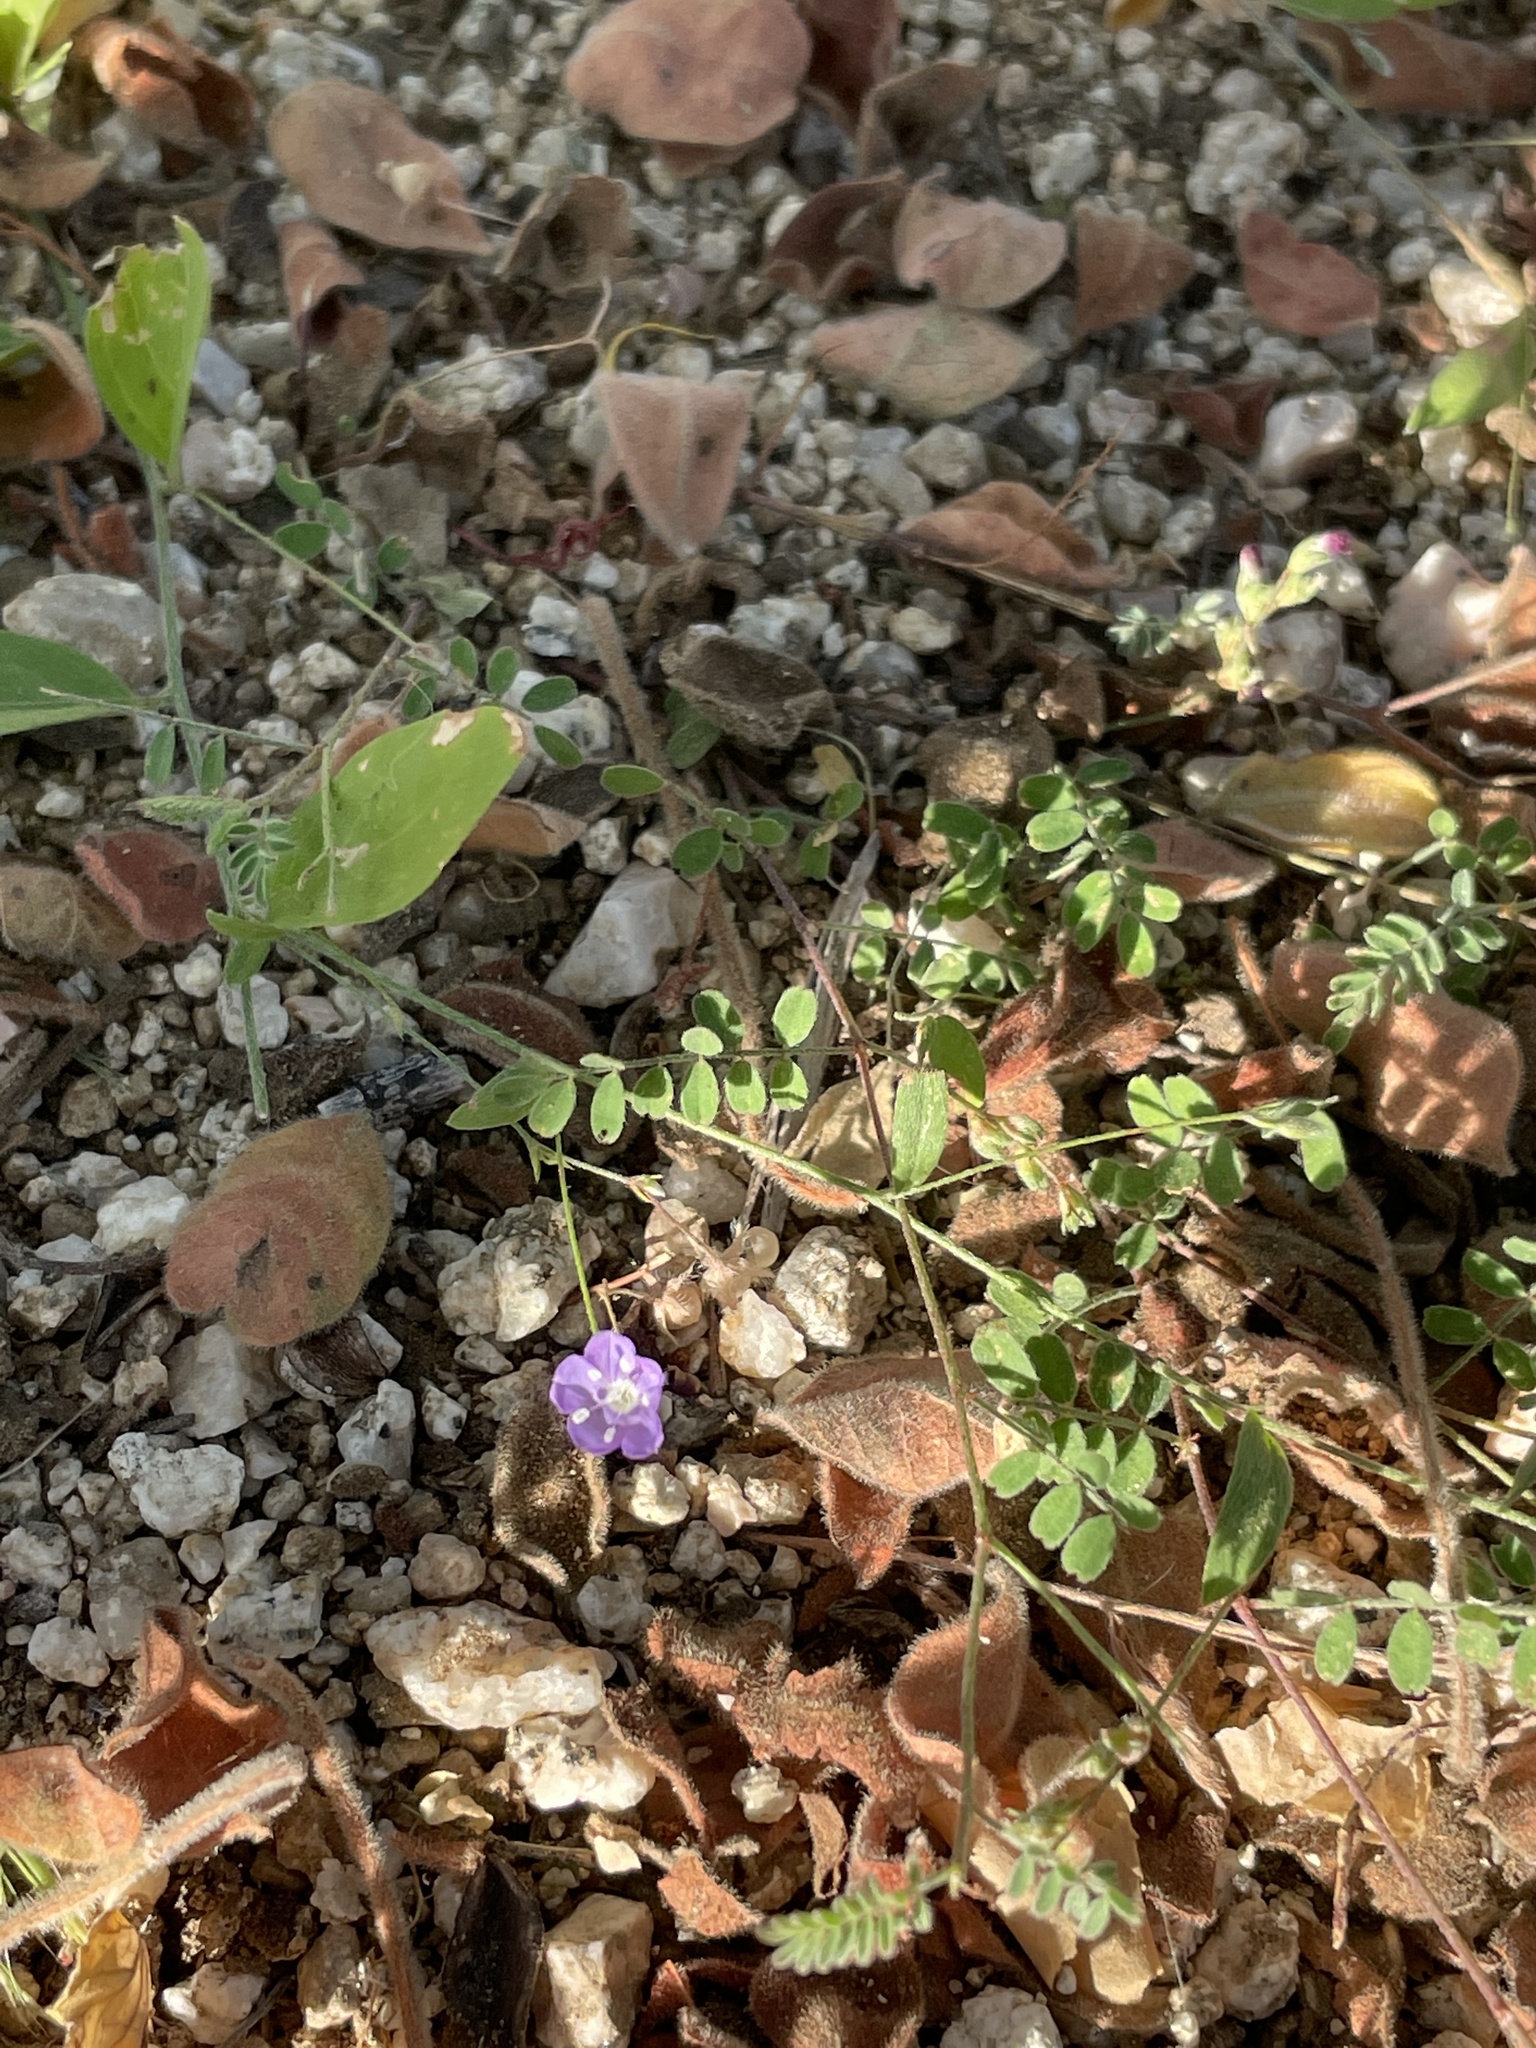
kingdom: Plantae
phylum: Tracheophyta
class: Magnoliopsida
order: Ericales
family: Polemoniaceae
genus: Loeselia
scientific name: Loeselia ciliata
